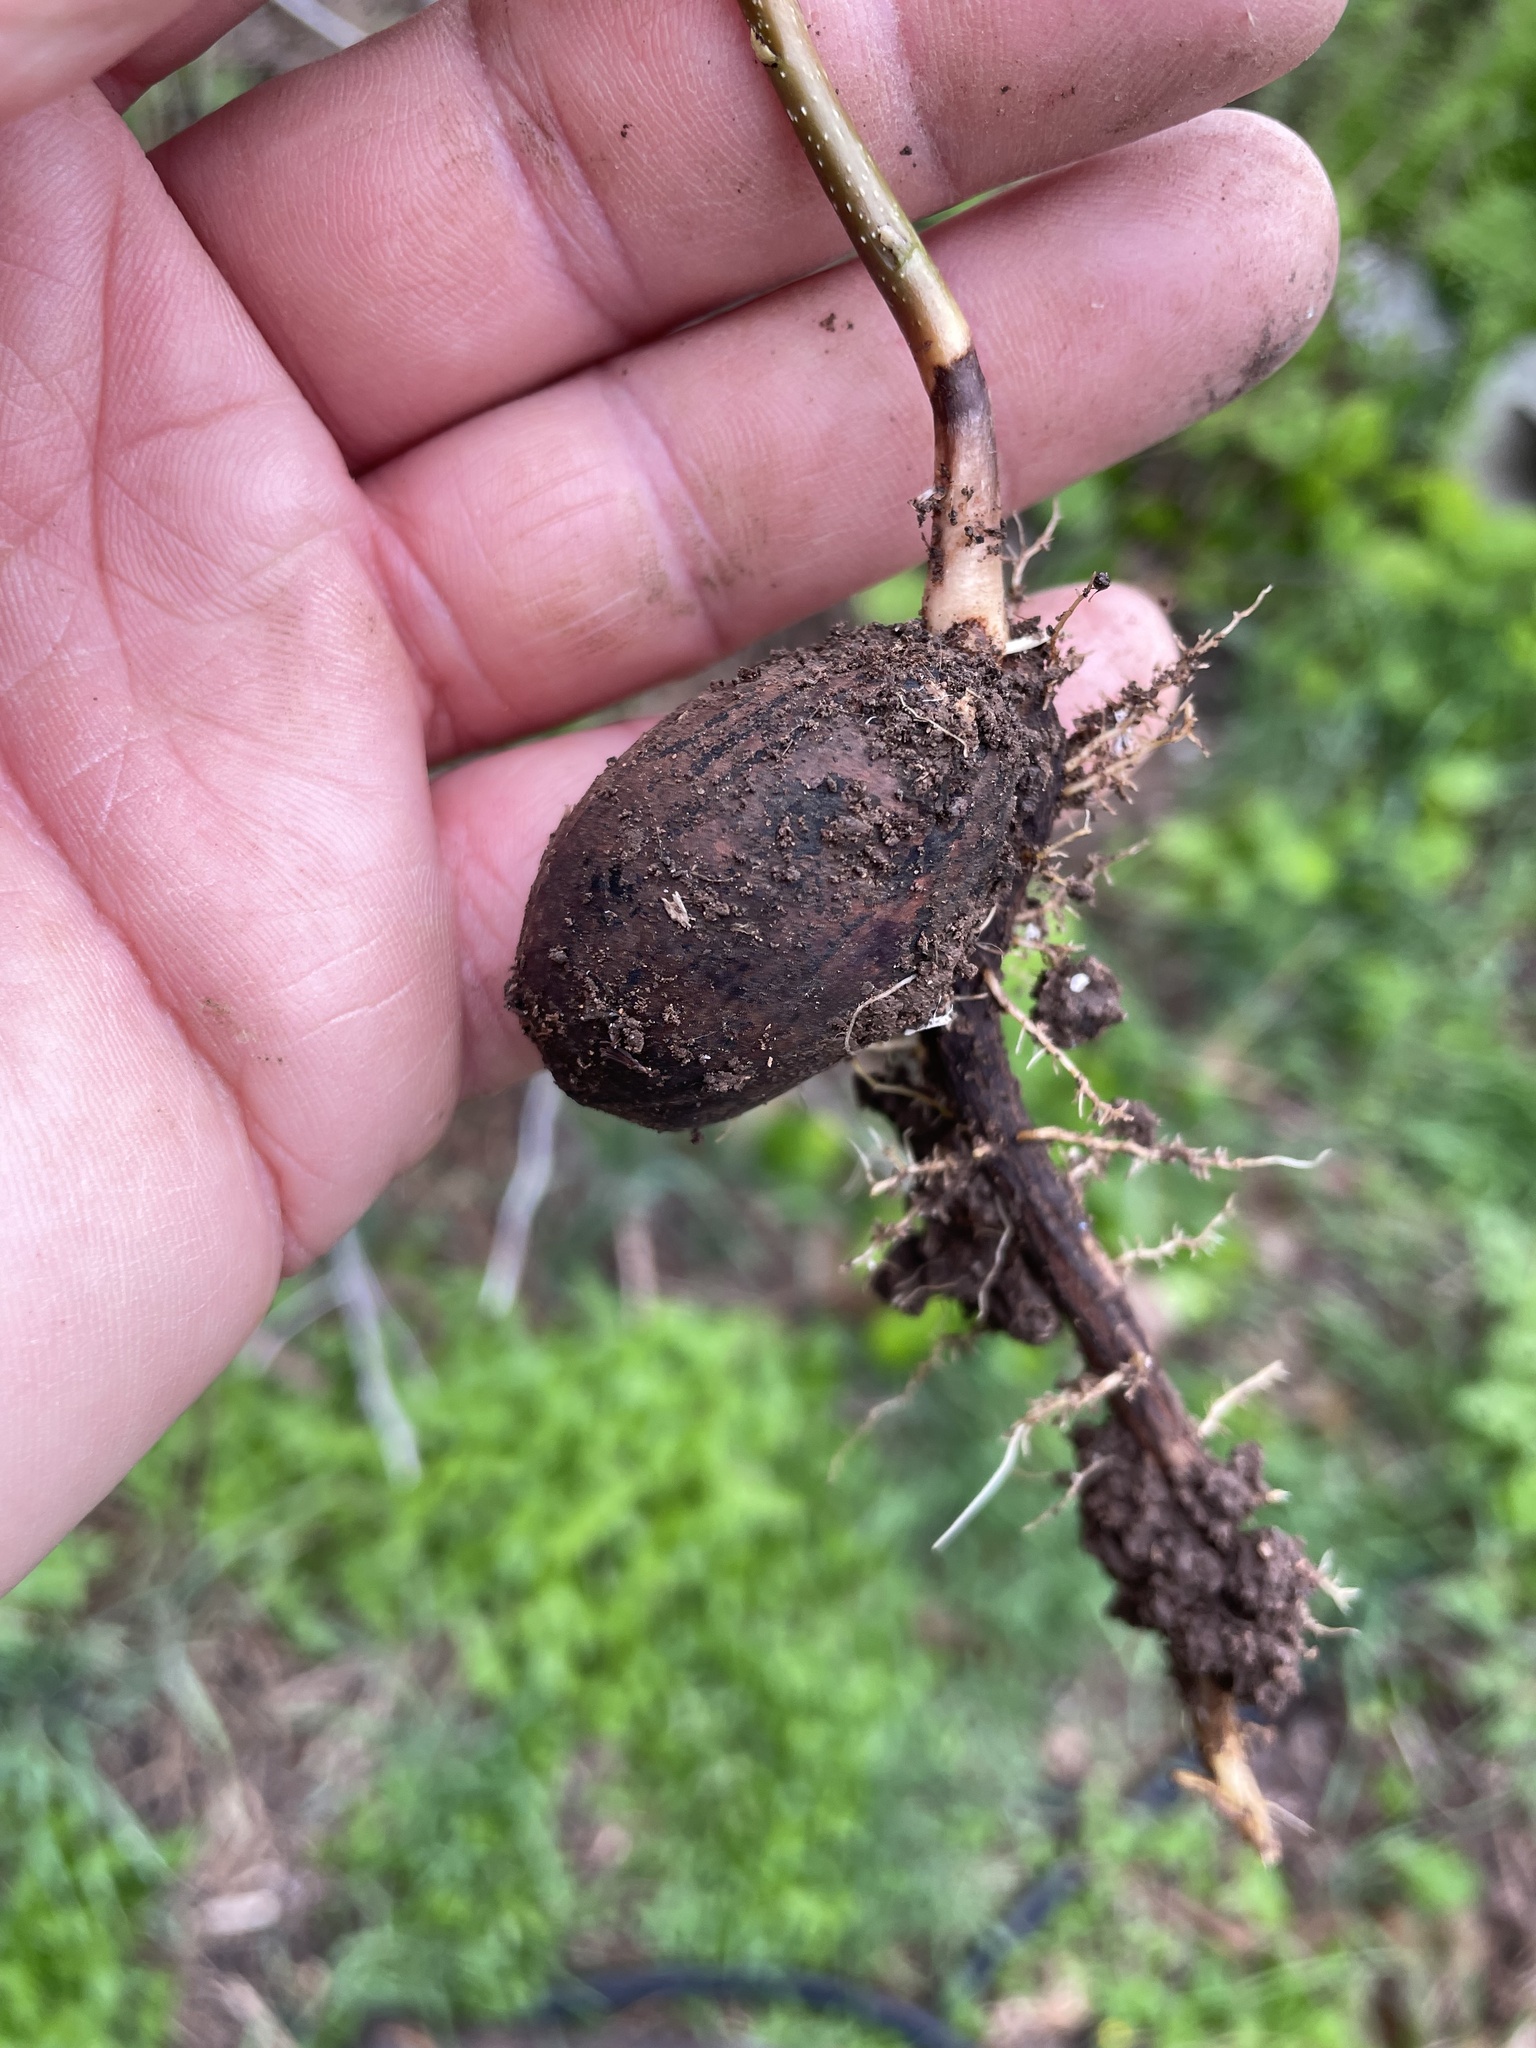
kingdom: Plantae
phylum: Tracheophyta
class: Magnoliopsida
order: Fagales
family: Juglandaceae
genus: Carya
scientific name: Carya illinoinensis
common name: Pecan
